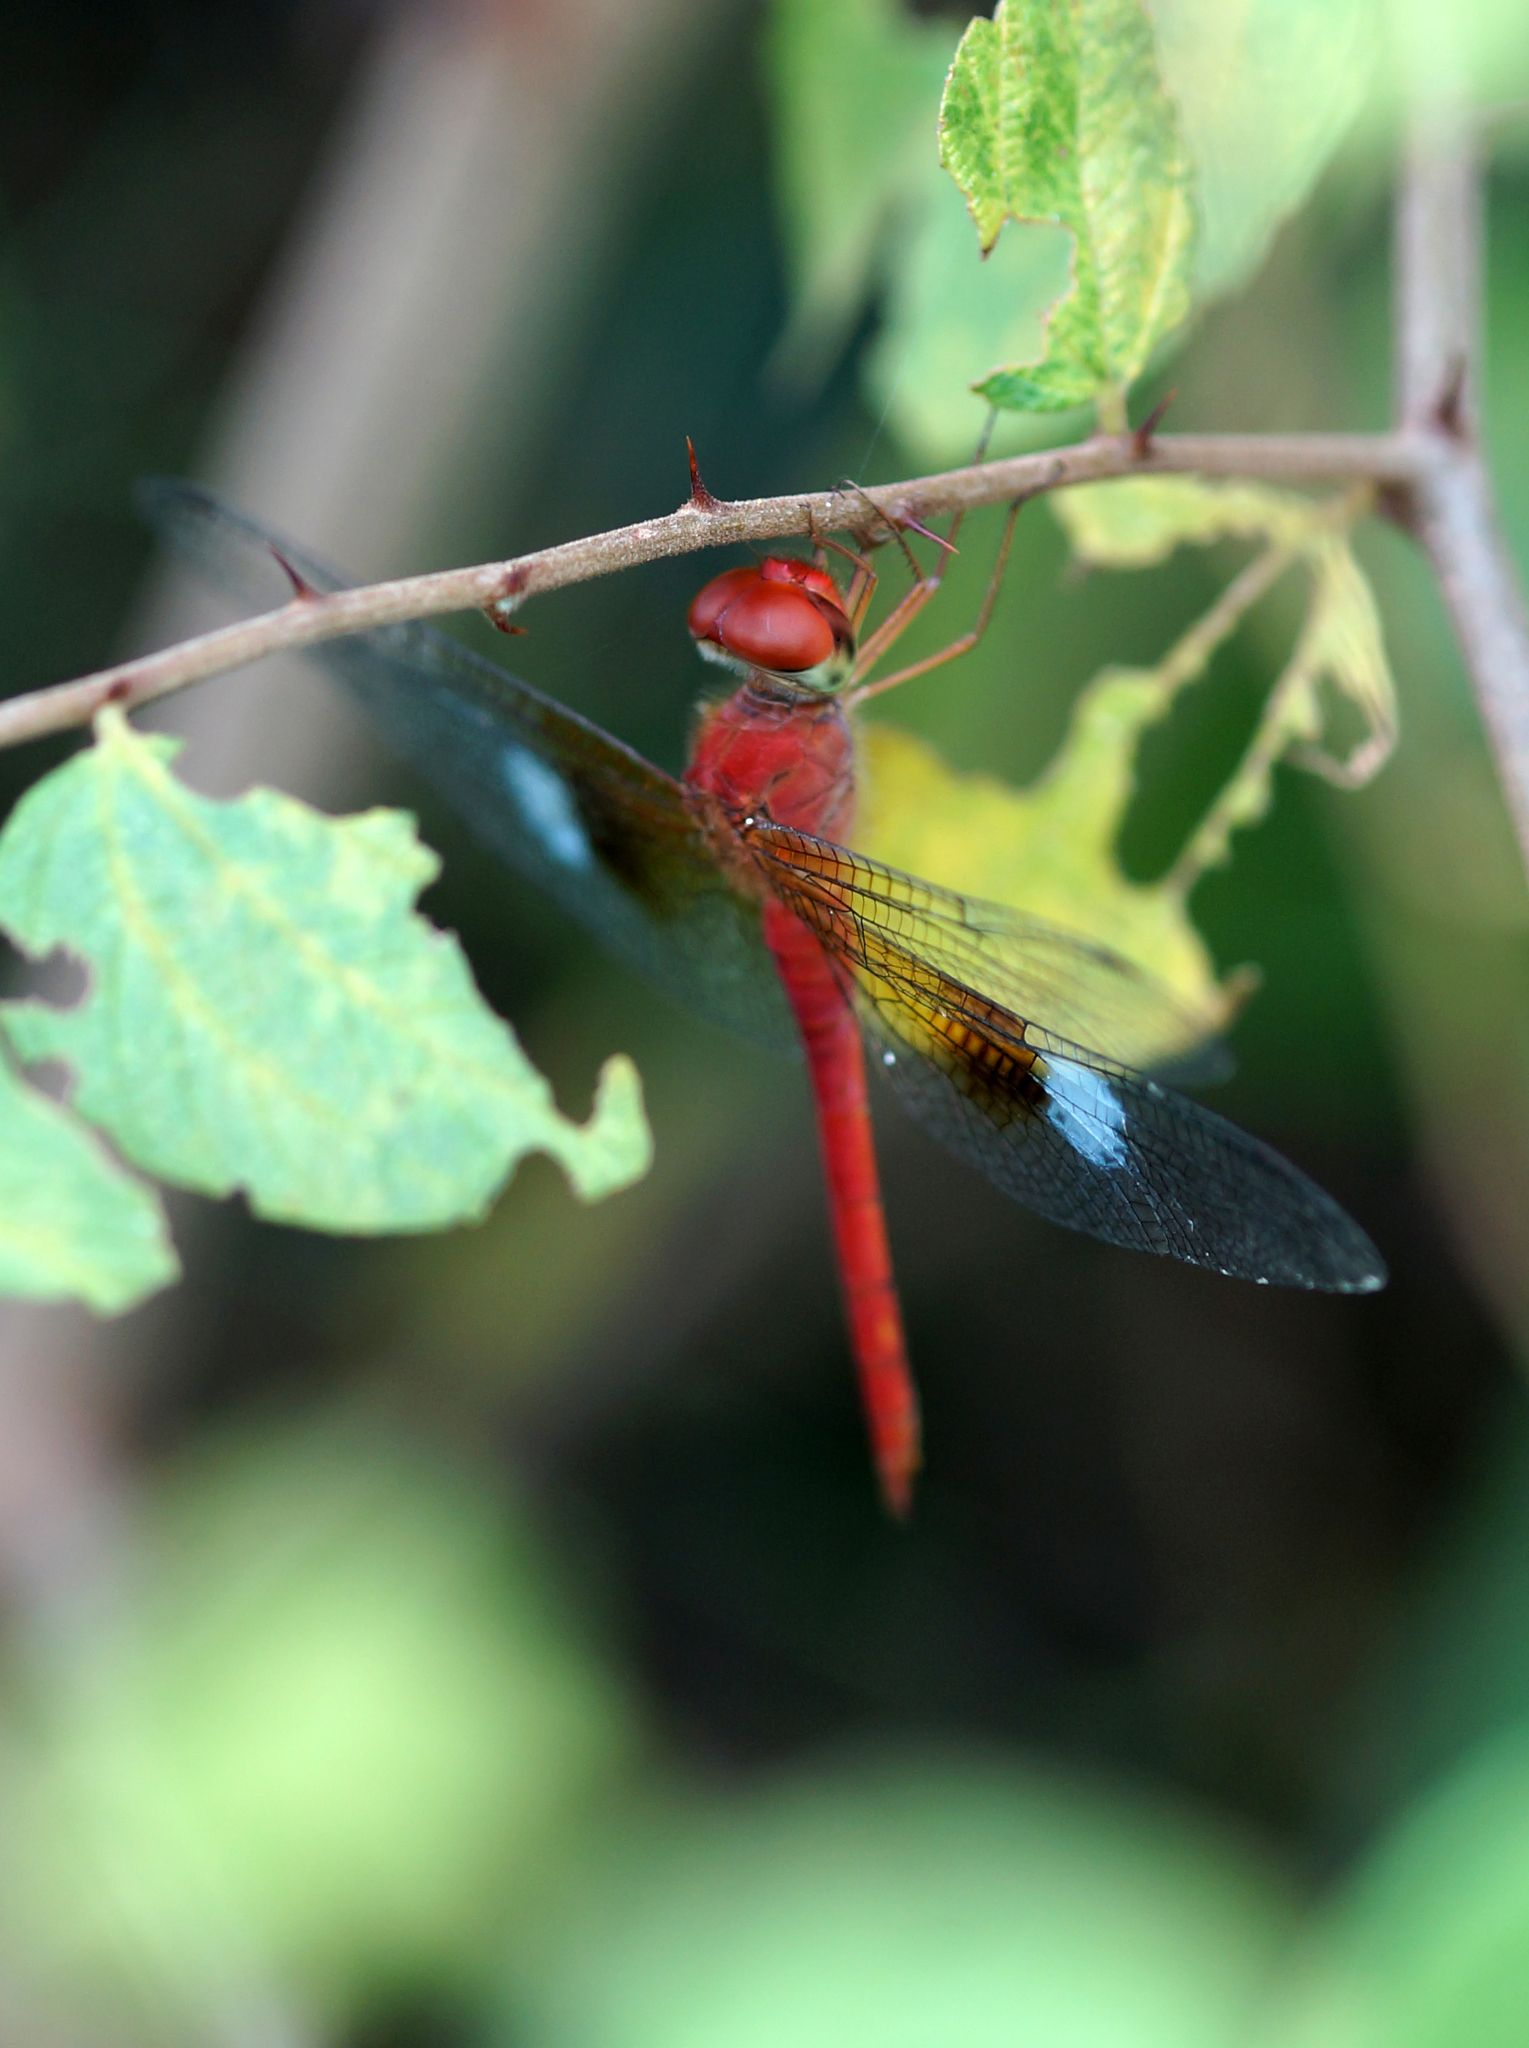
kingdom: Animalia
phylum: Arthropoda
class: Insecta
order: Odonata
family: Libellulidae
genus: Tholymis
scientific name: Tholymis tillarga
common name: Coral-tailed cloud wing
